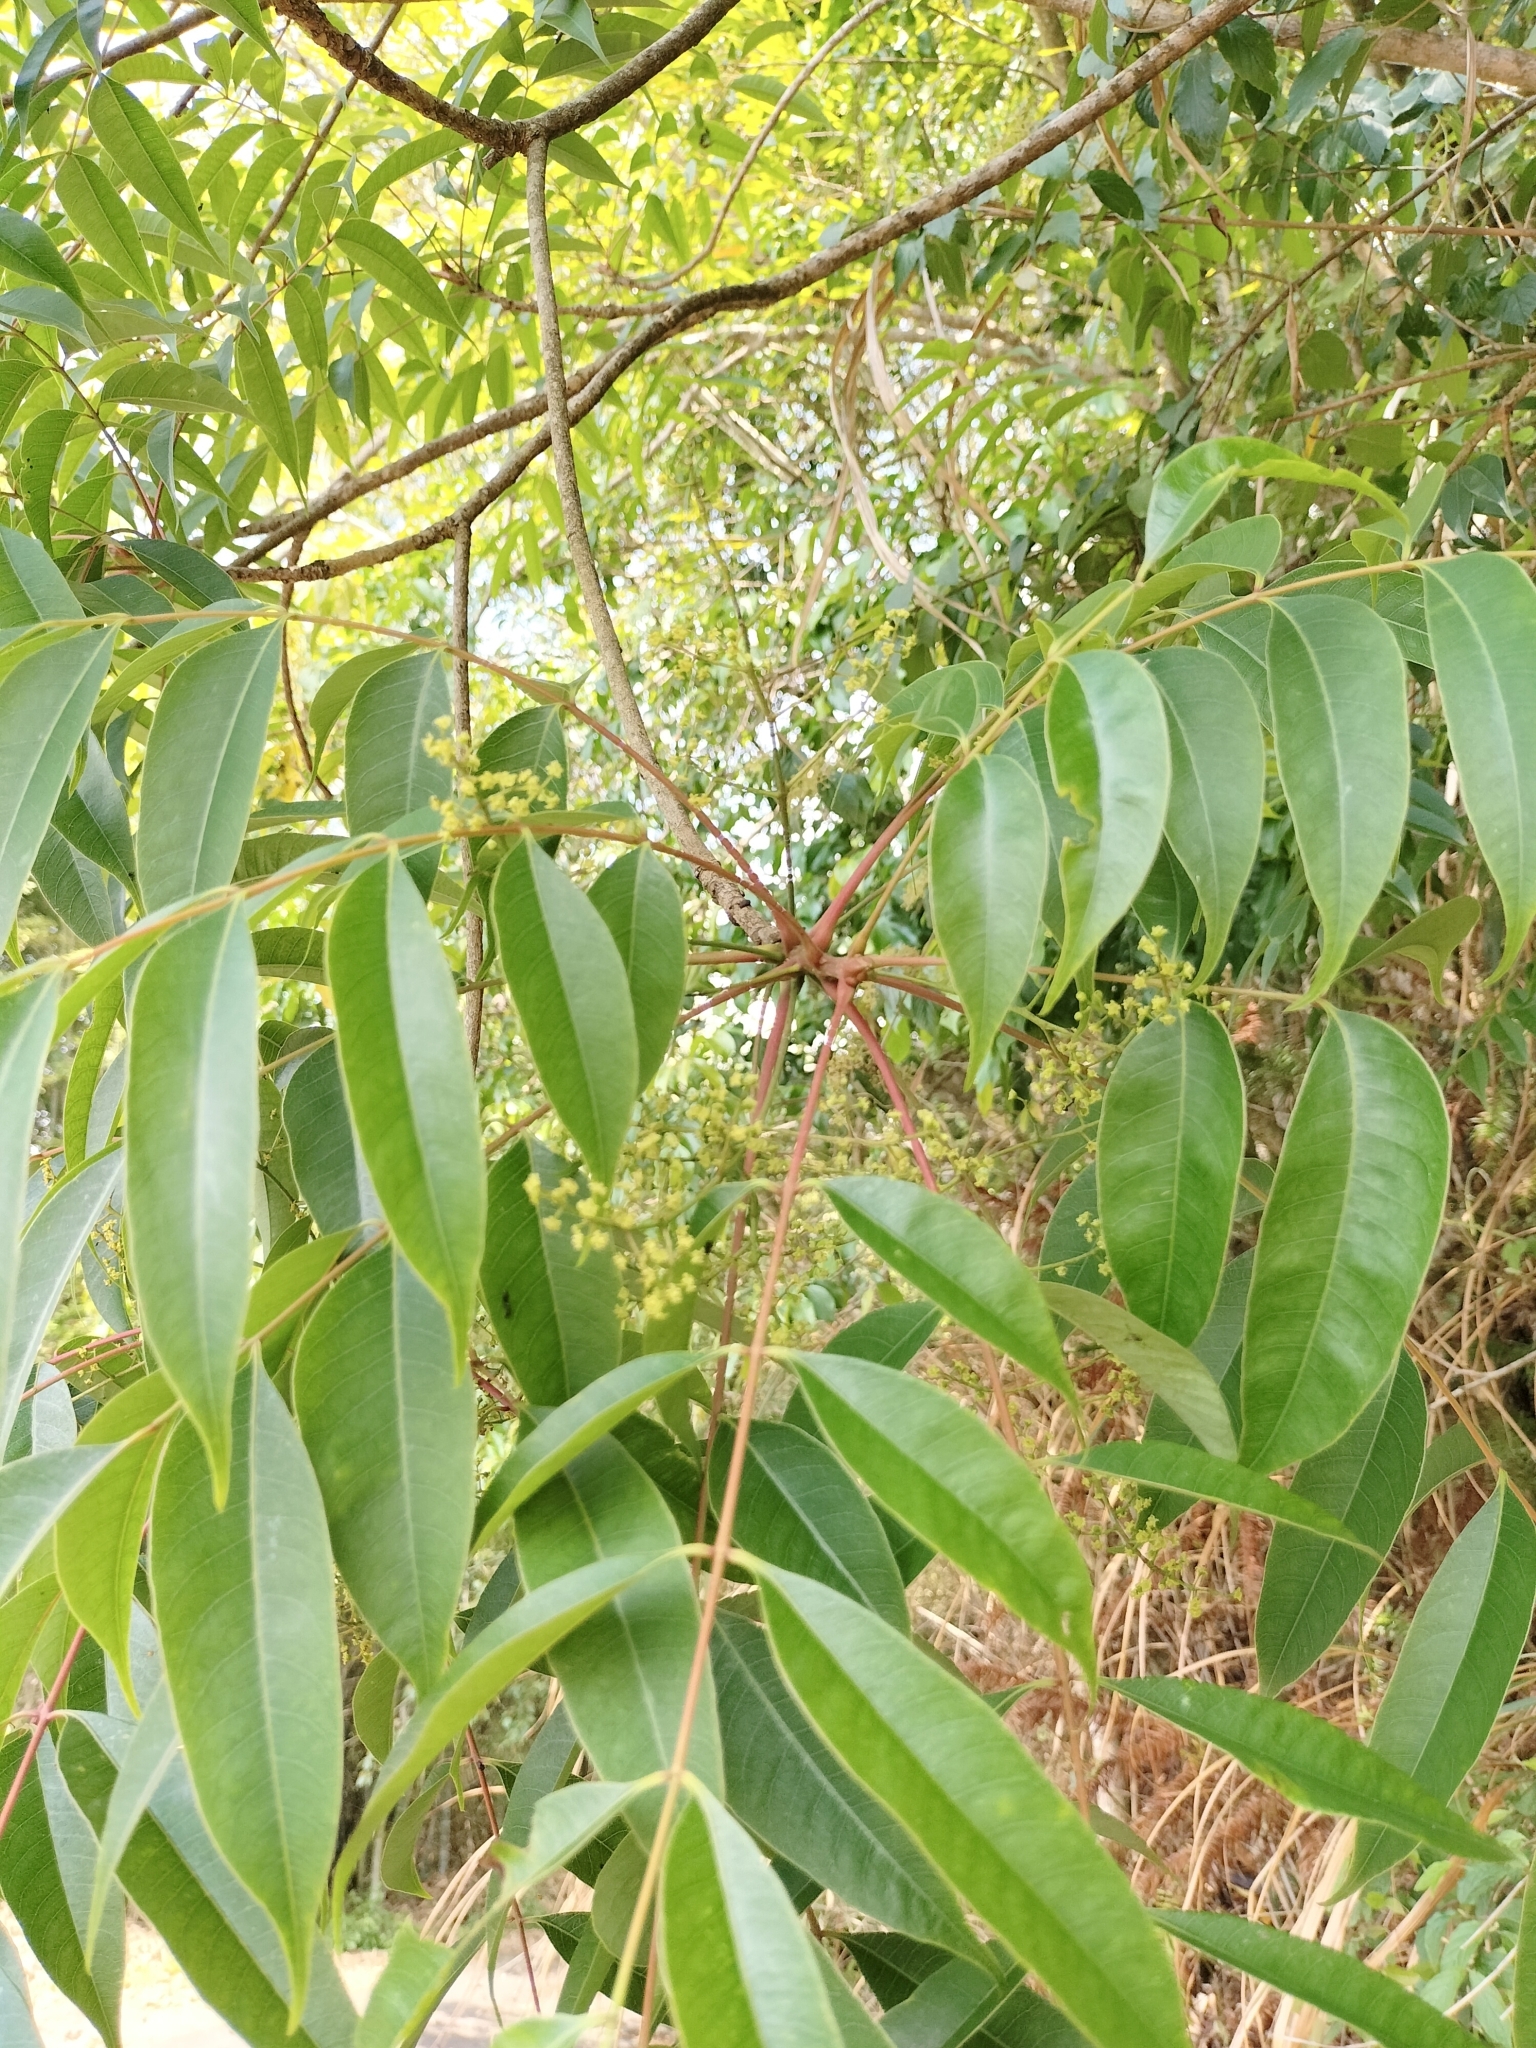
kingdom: Plantae
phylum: Tracheophyta
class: Magnoliopsida
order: Sapindales
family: Anacardiaceae
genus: Toxicodendron
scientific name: Toxicodendron succedaneum
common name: Wax tree
